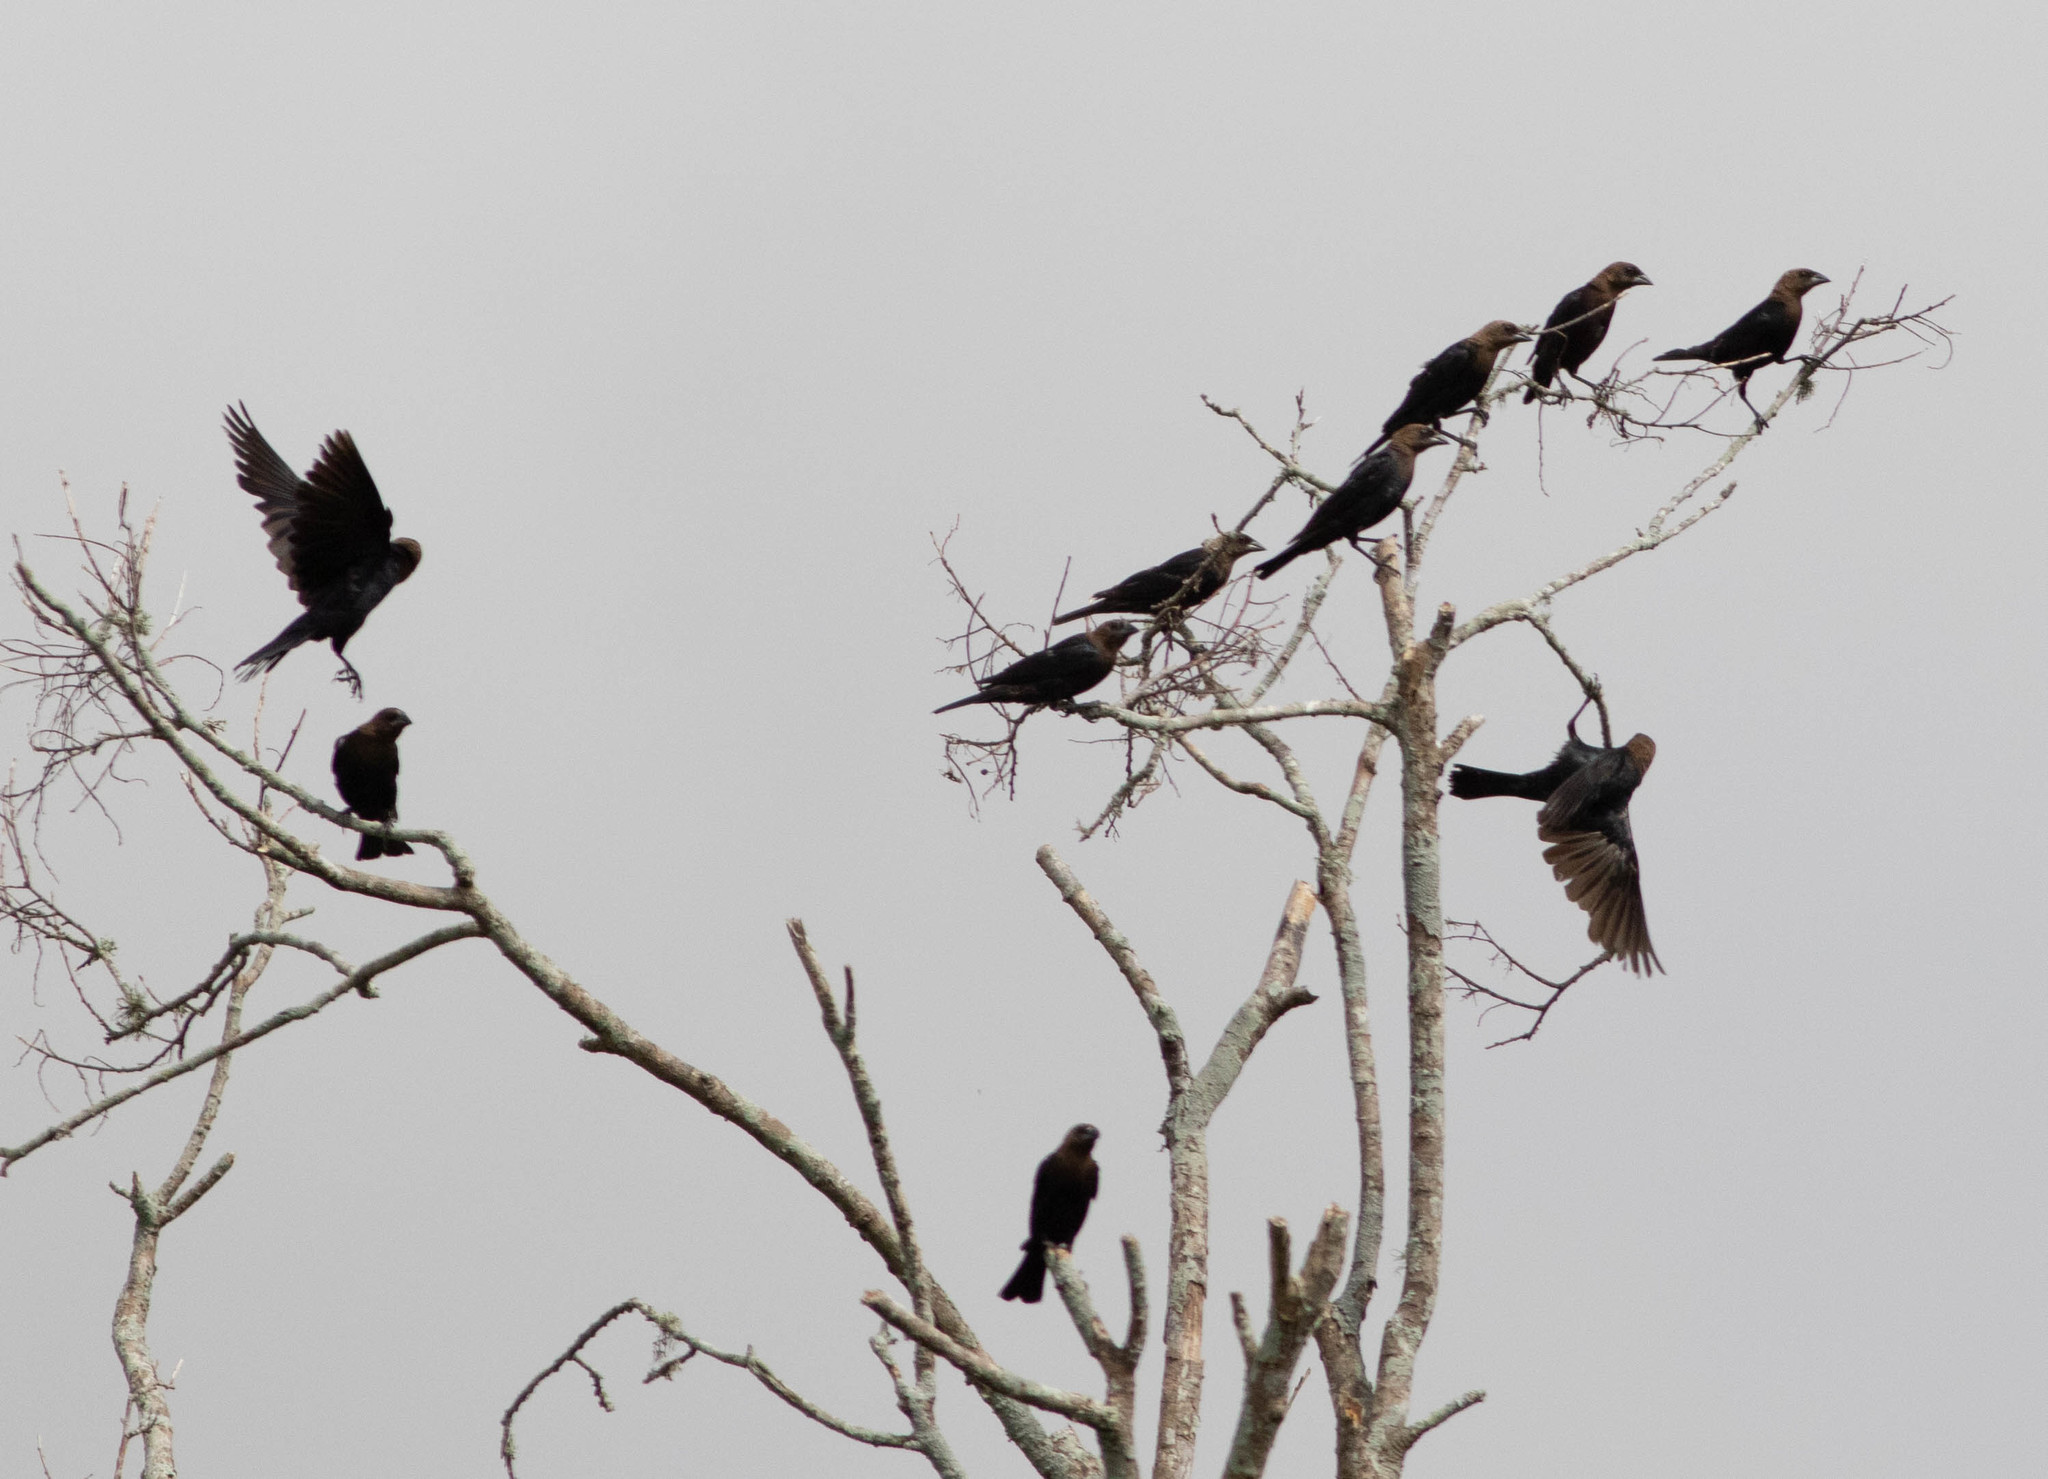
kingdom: Animalia
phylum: Chordata
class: Aves
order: Passeriformes
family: Icteridae
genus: Molothrus
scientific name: Molothrus ater
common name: Brown-headed cowbird
